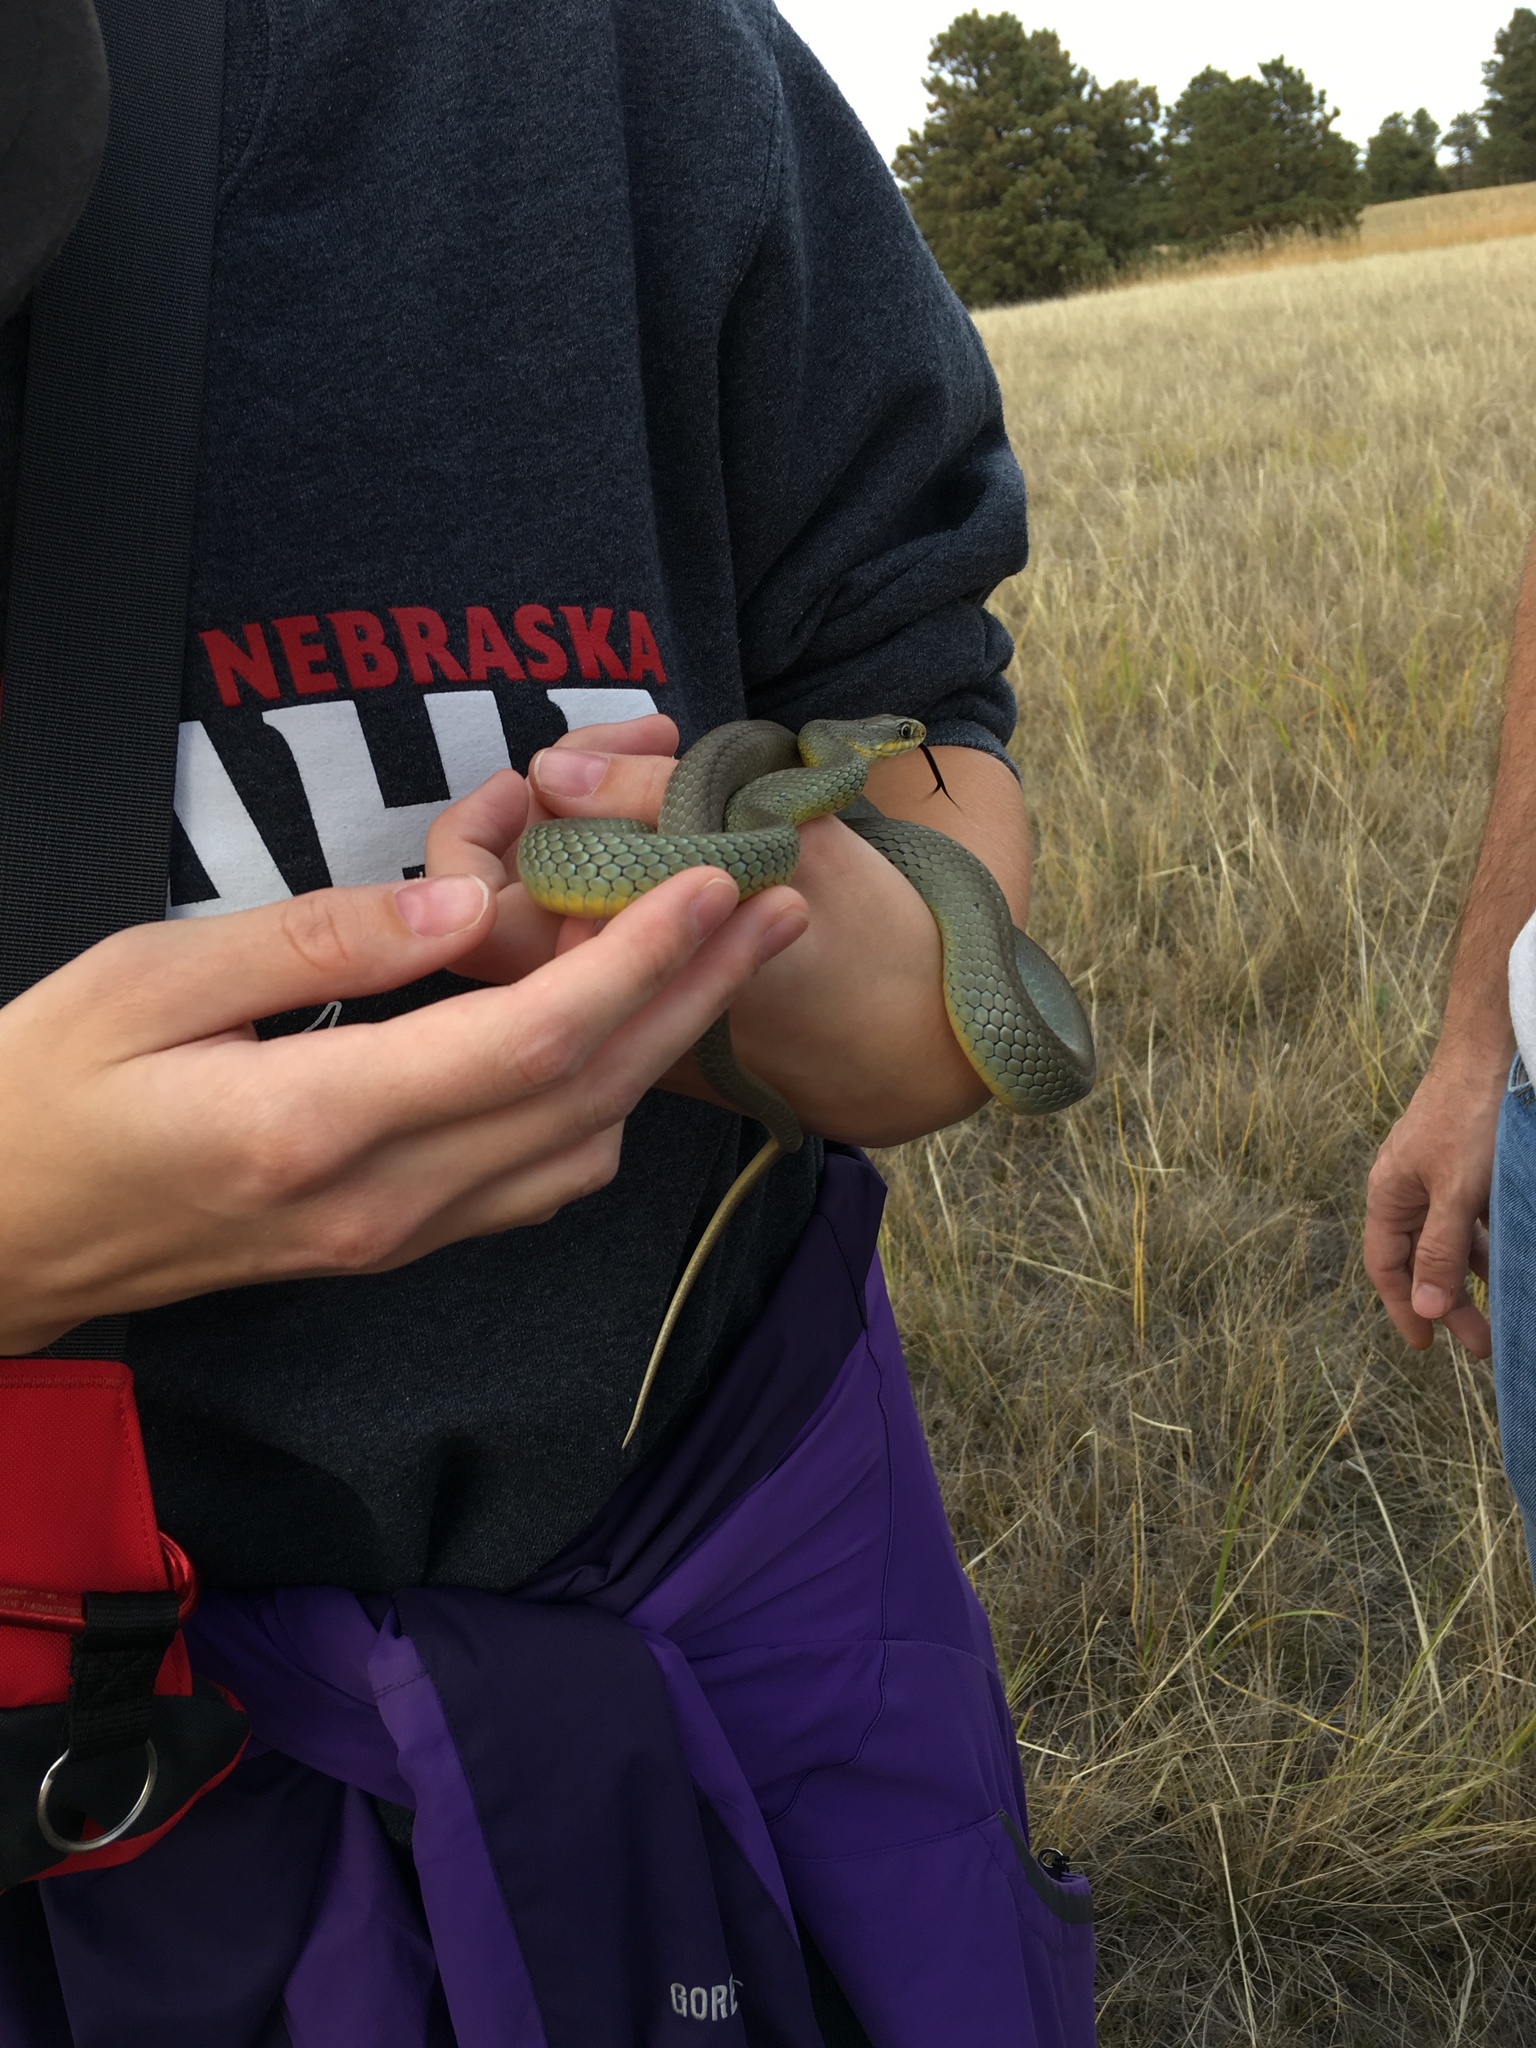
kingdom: Animalia
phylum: Chordata
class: Squamata
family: Colubridae
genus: Coluber
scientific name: Coluber constrictor
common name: Eastern racer
